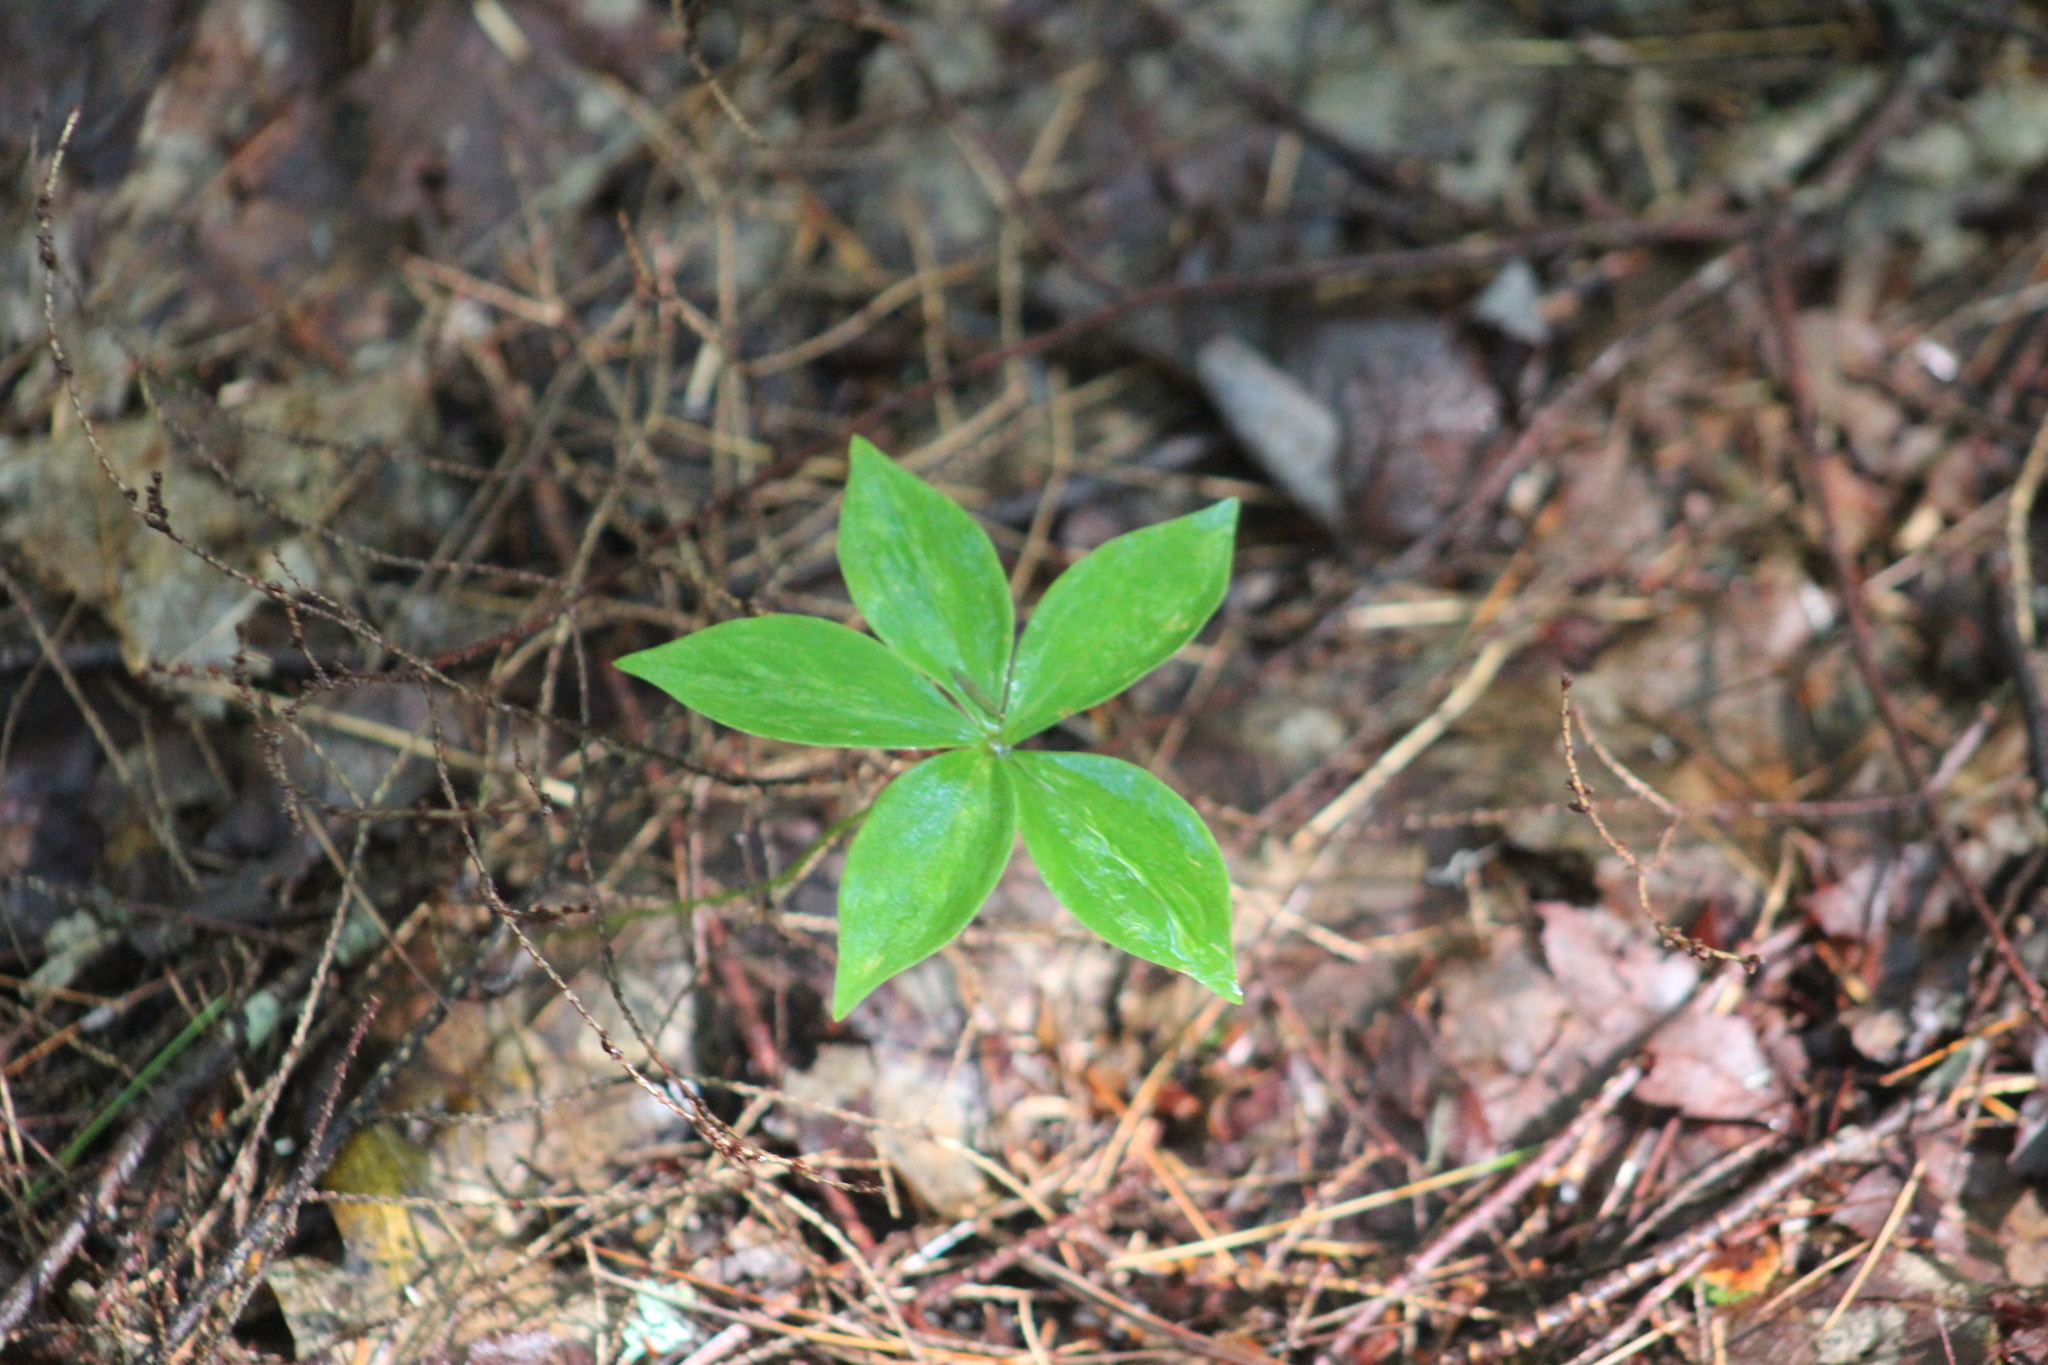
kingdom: Plantae
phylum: Tracheophyta
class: Liliopsida
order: Liliales
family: Liliaceae
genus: Medeola
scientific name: Medeola virginiana
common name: Indian cucumber-root
